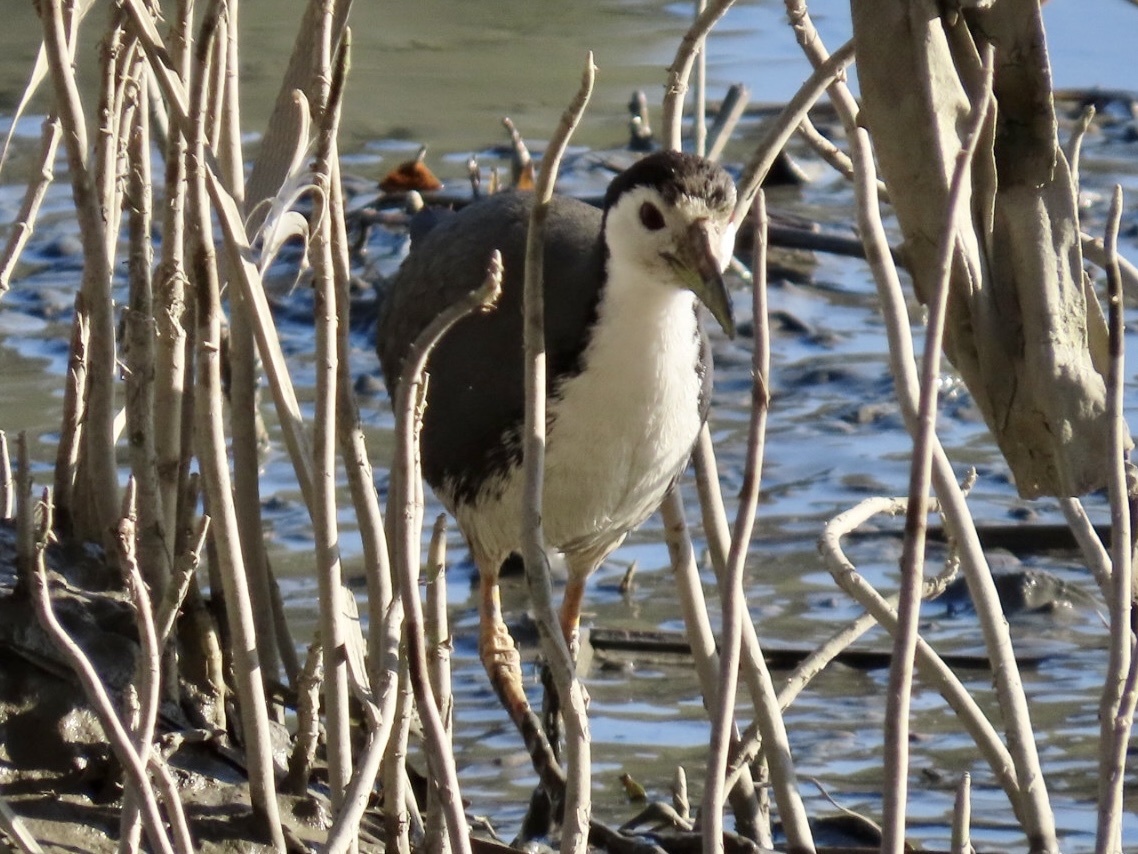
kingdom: Animalia
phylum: Chordata
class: Aves
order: Gruiformes
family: Rallidae
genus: Amaurornis
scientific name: Amaurornis phoenicurus
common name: White-breasted waterhen
